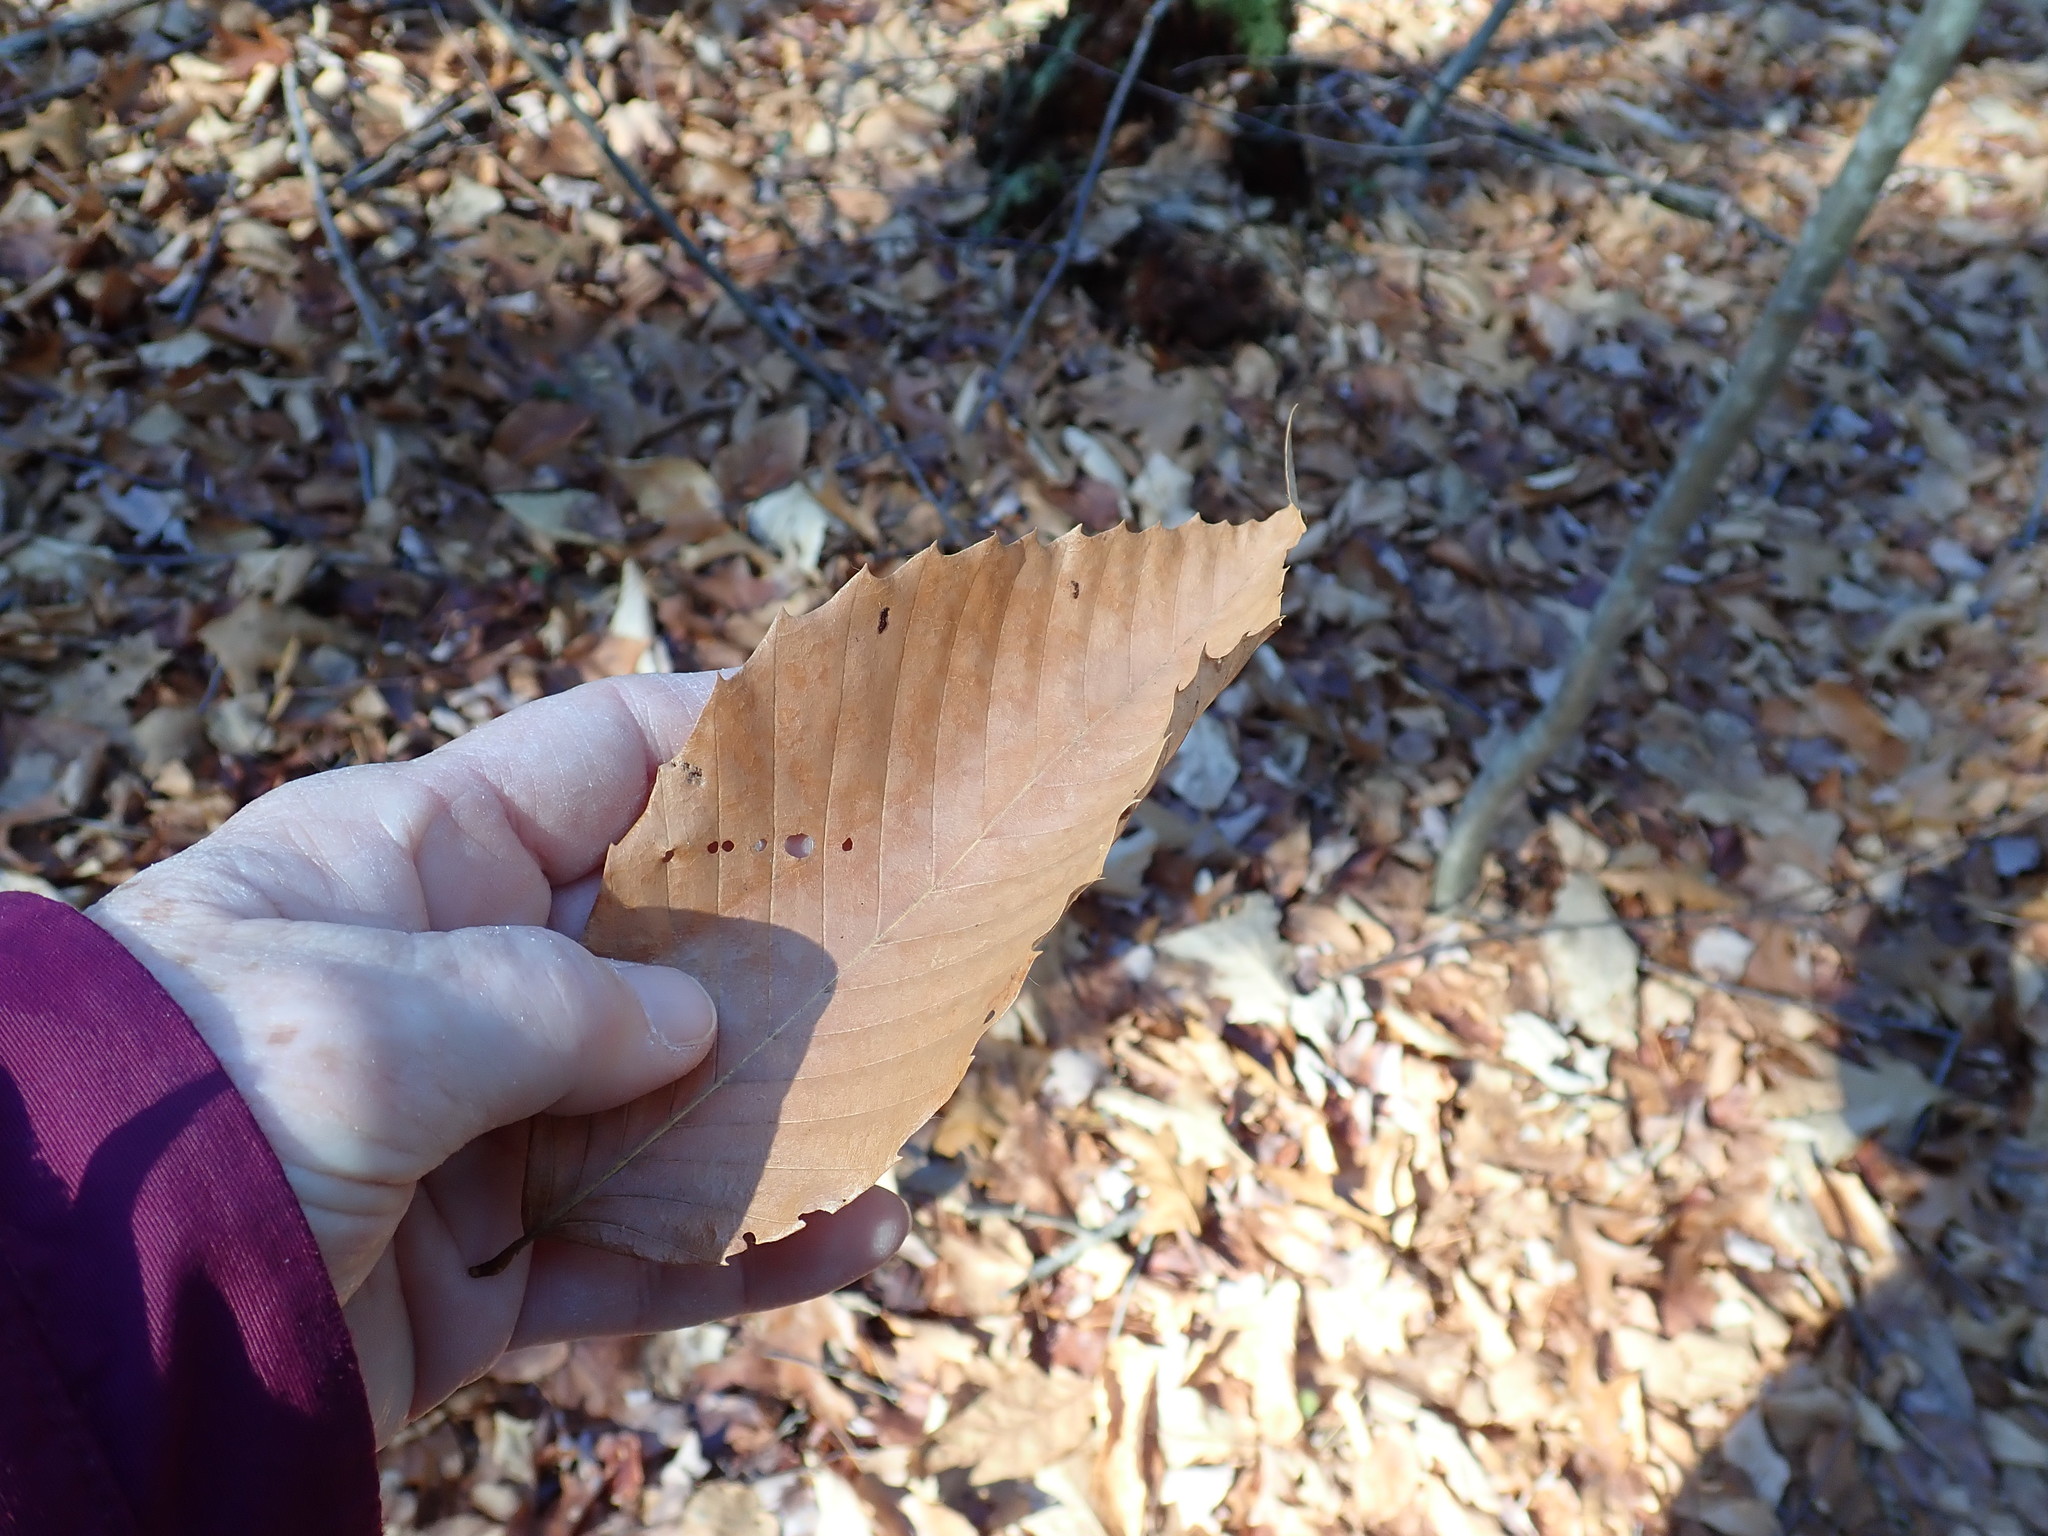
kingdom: Plantae
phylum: Tracheophyta
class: Magnoliopsida
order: Fagales
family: Fagaceae
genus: Fagus
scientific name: Fagus grandifolia
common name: American beech
